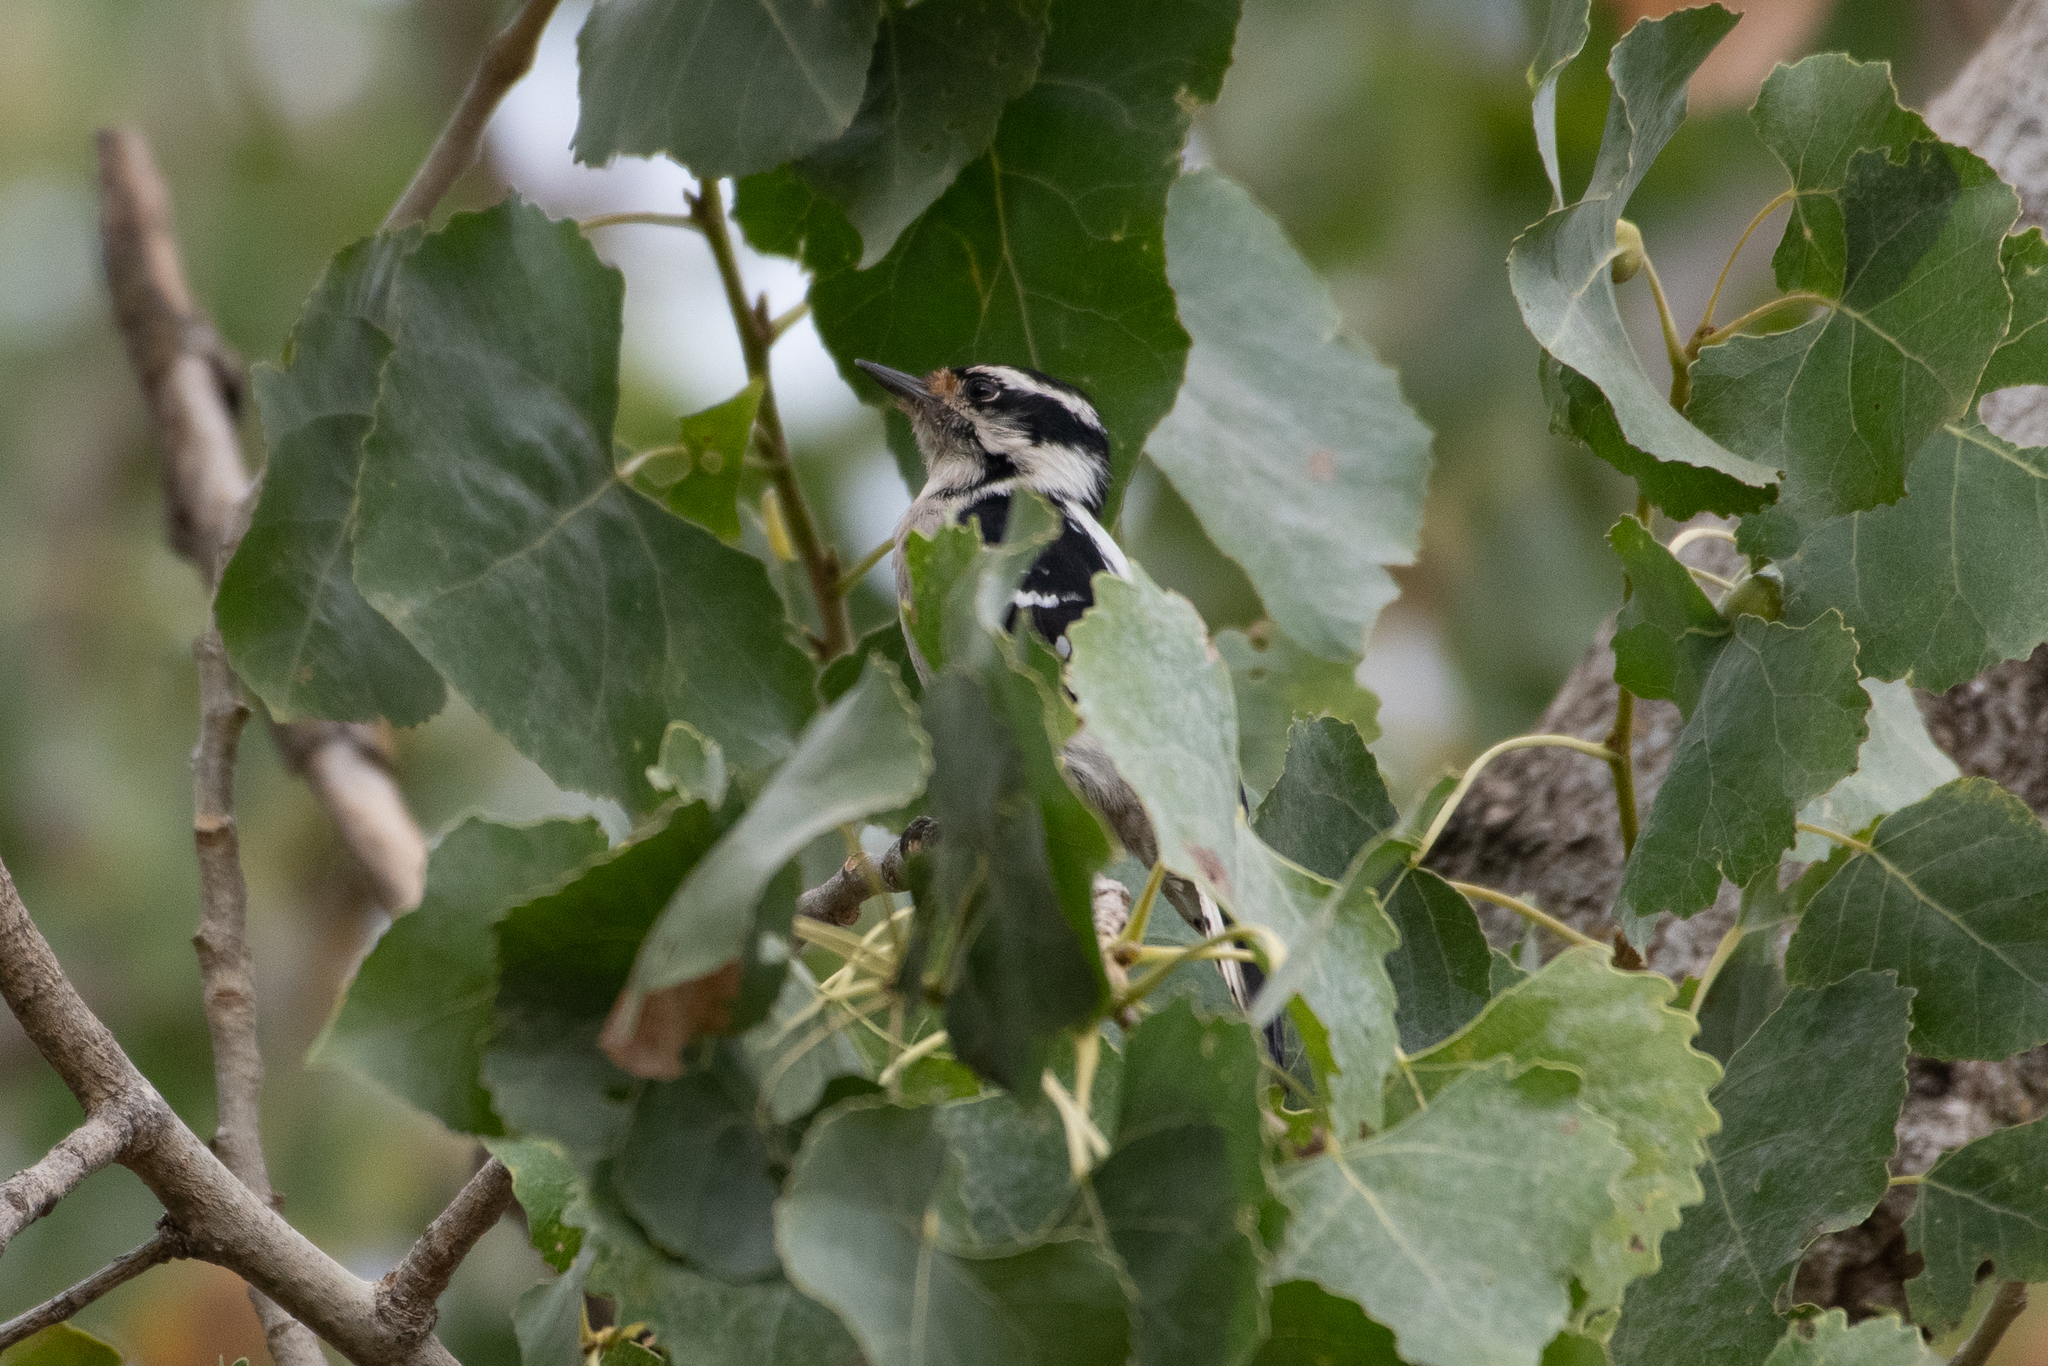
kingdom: Animalia
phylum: Chordata
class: Aves
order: Piciformes
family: Picidae
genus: Dryobates
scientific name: Dryobates pubescens
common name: Downy woodpecker
